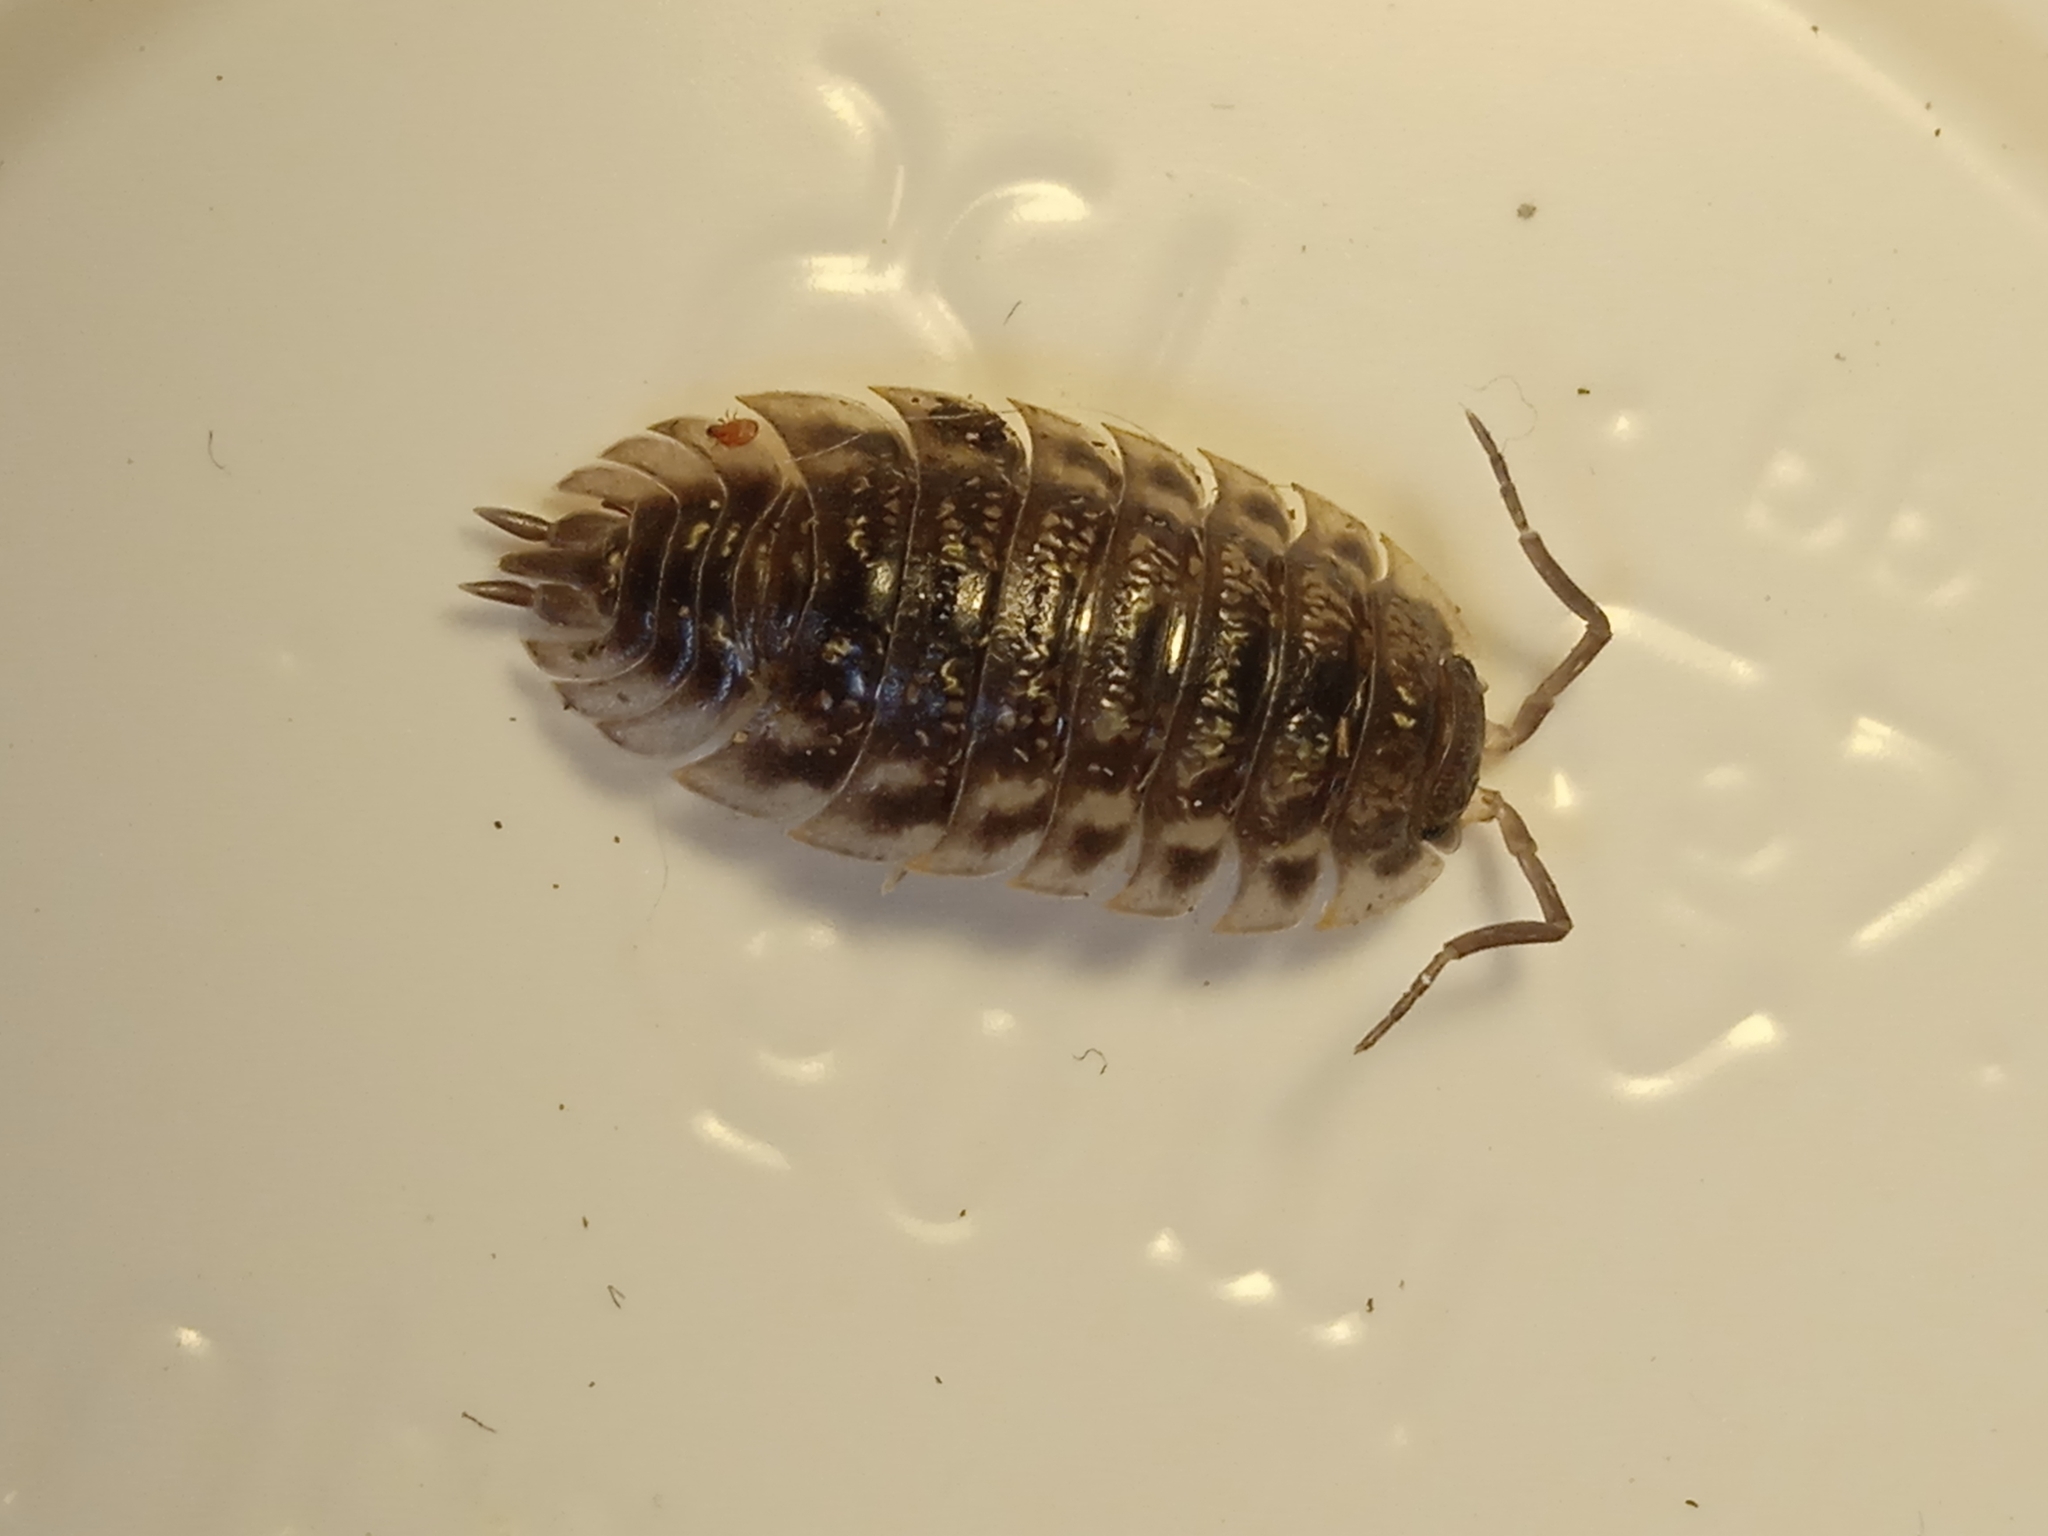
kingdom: Animalia
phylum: Arthropoda
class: Malacostraca
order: Isopoda
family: Oniscidae
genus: Oniscus
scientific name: Oniscus asellus
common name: Common shiny woodlouse
